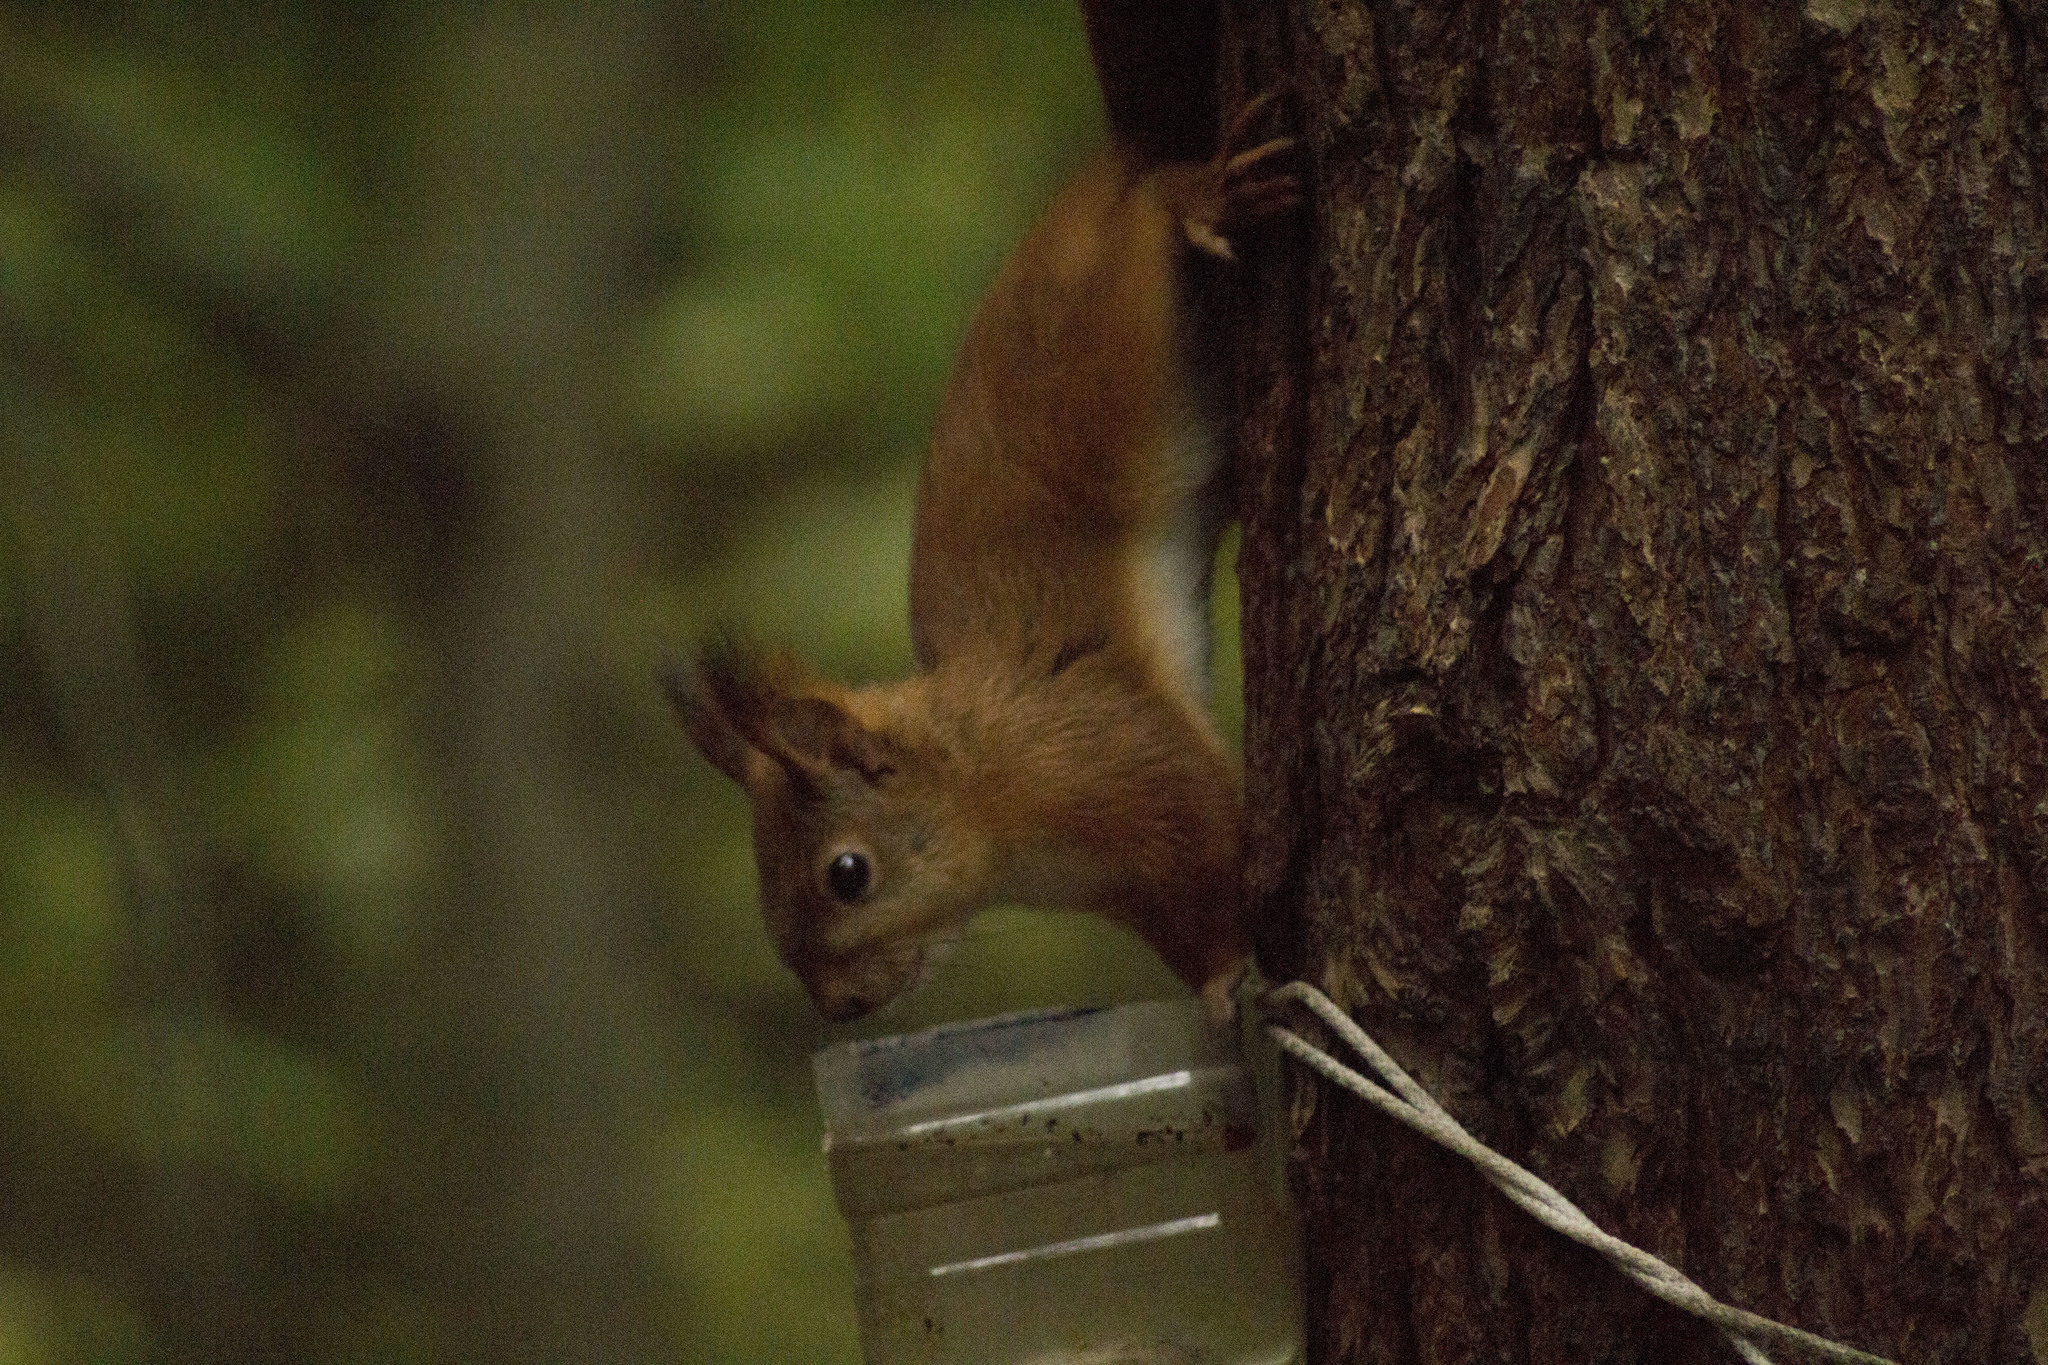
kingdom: Animalia
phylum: Chordata
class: Mammalia
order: Rodentia
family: Sciuridae
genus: Sciurus
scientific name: Sciurus vulgaris
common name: Eurasian red squirrel
